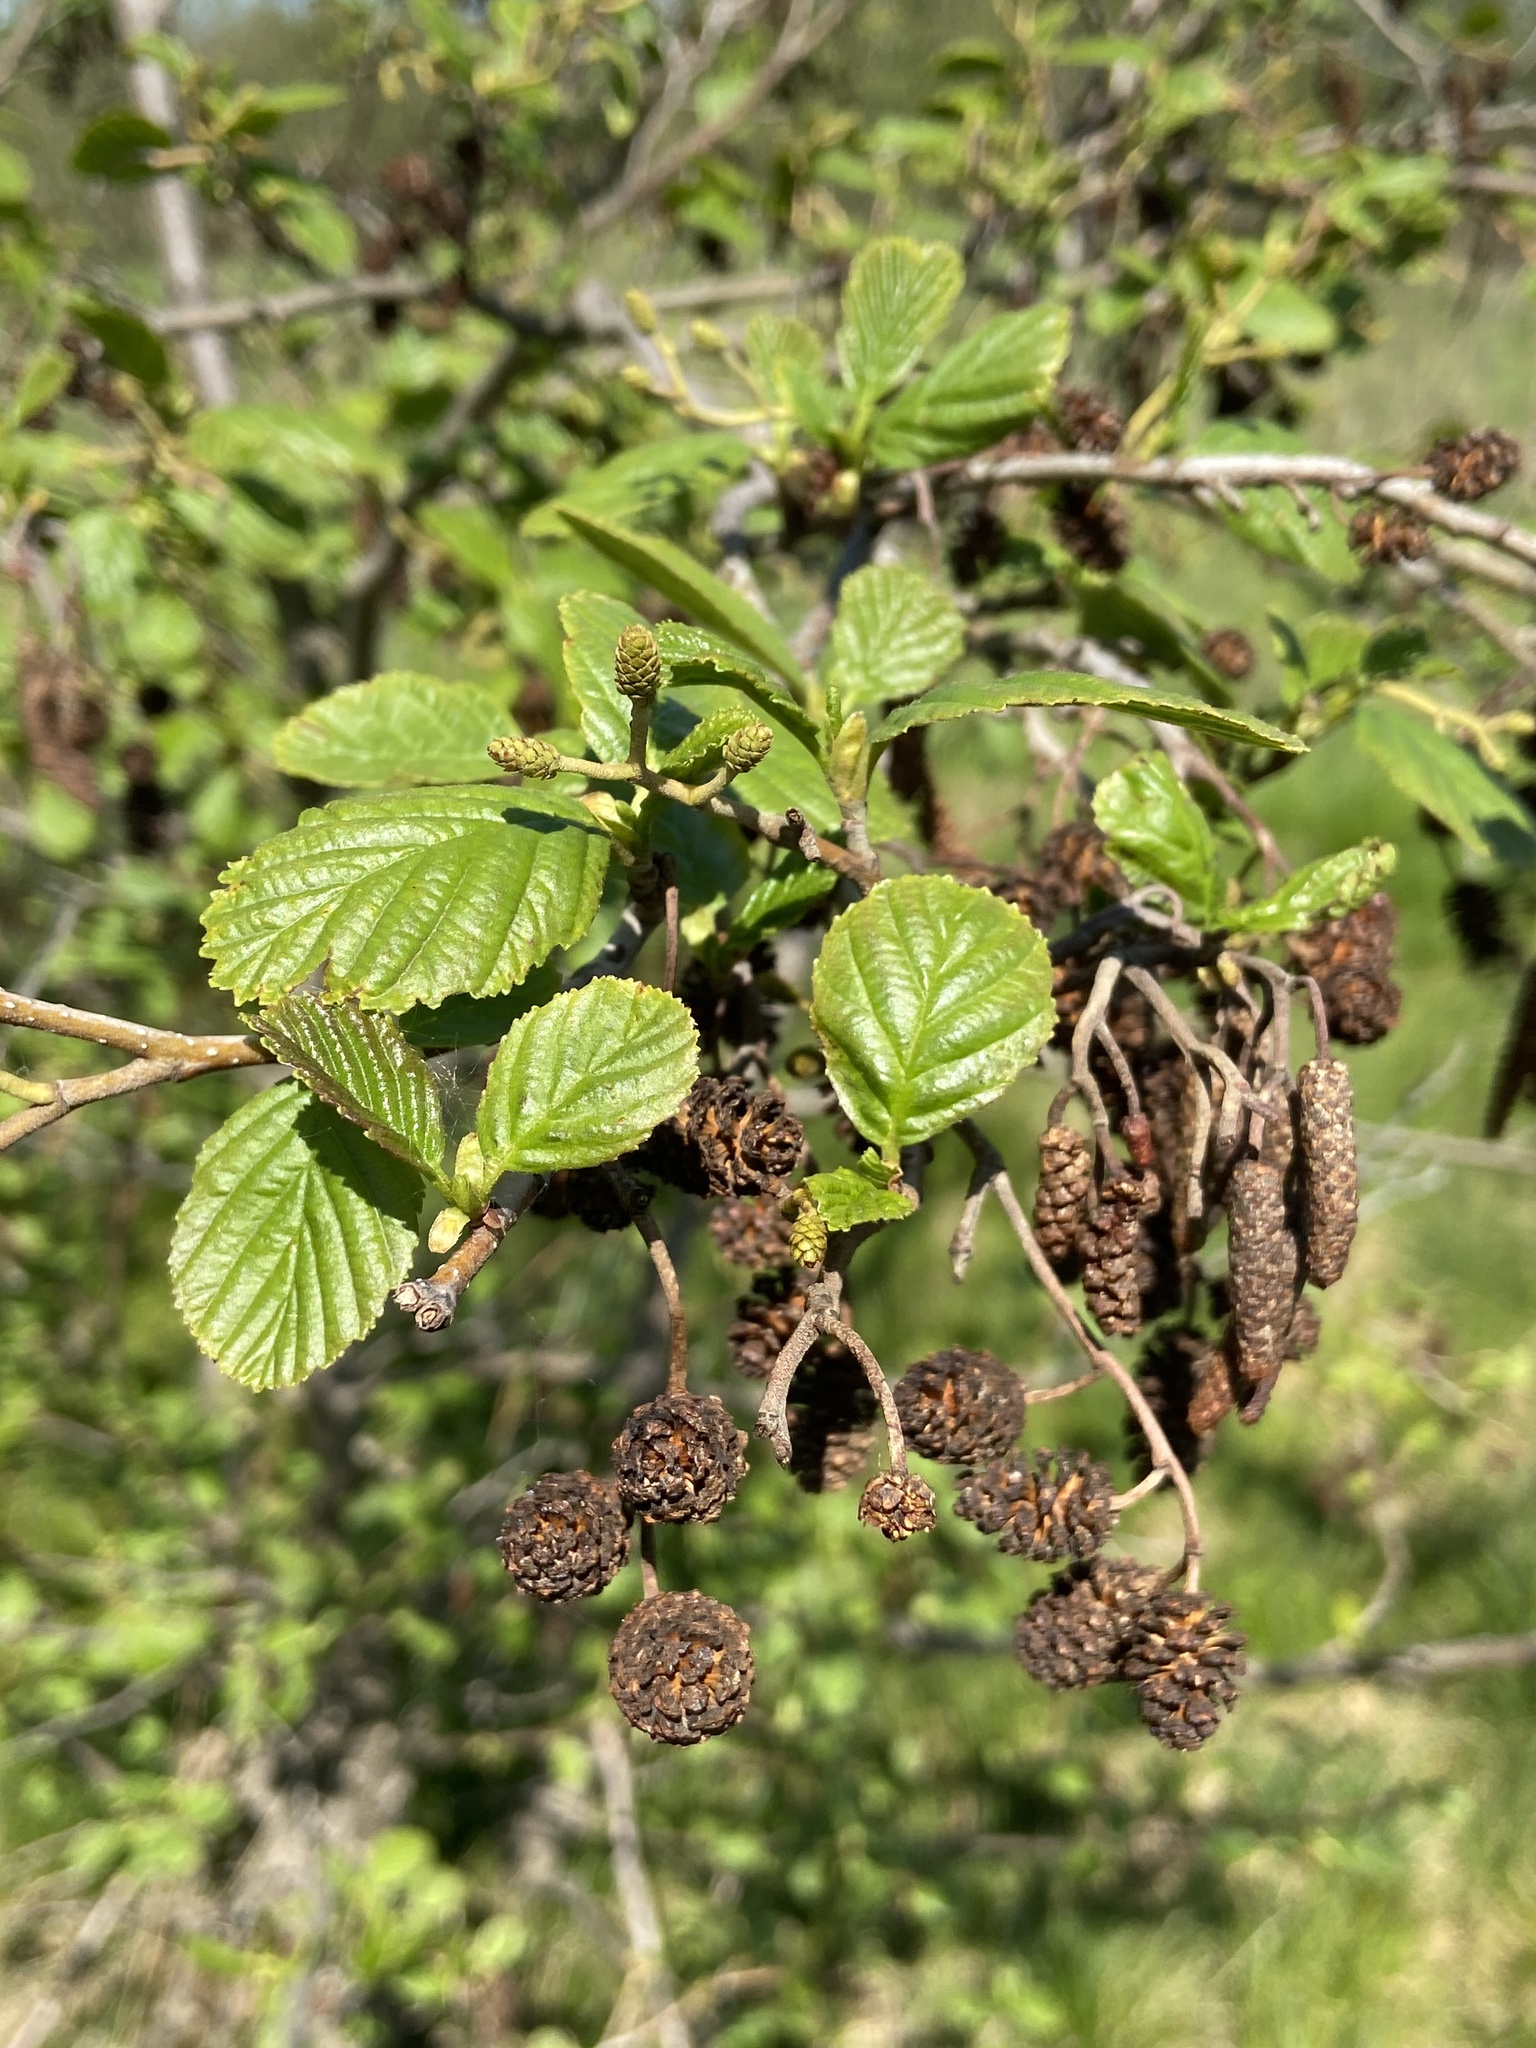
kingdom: Plantae
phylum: Tracheophyta
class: Magnoliopsida
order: Fagales
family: Betulaceae
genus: Alnus
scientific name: Alnus glutinosa
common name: Black alder
